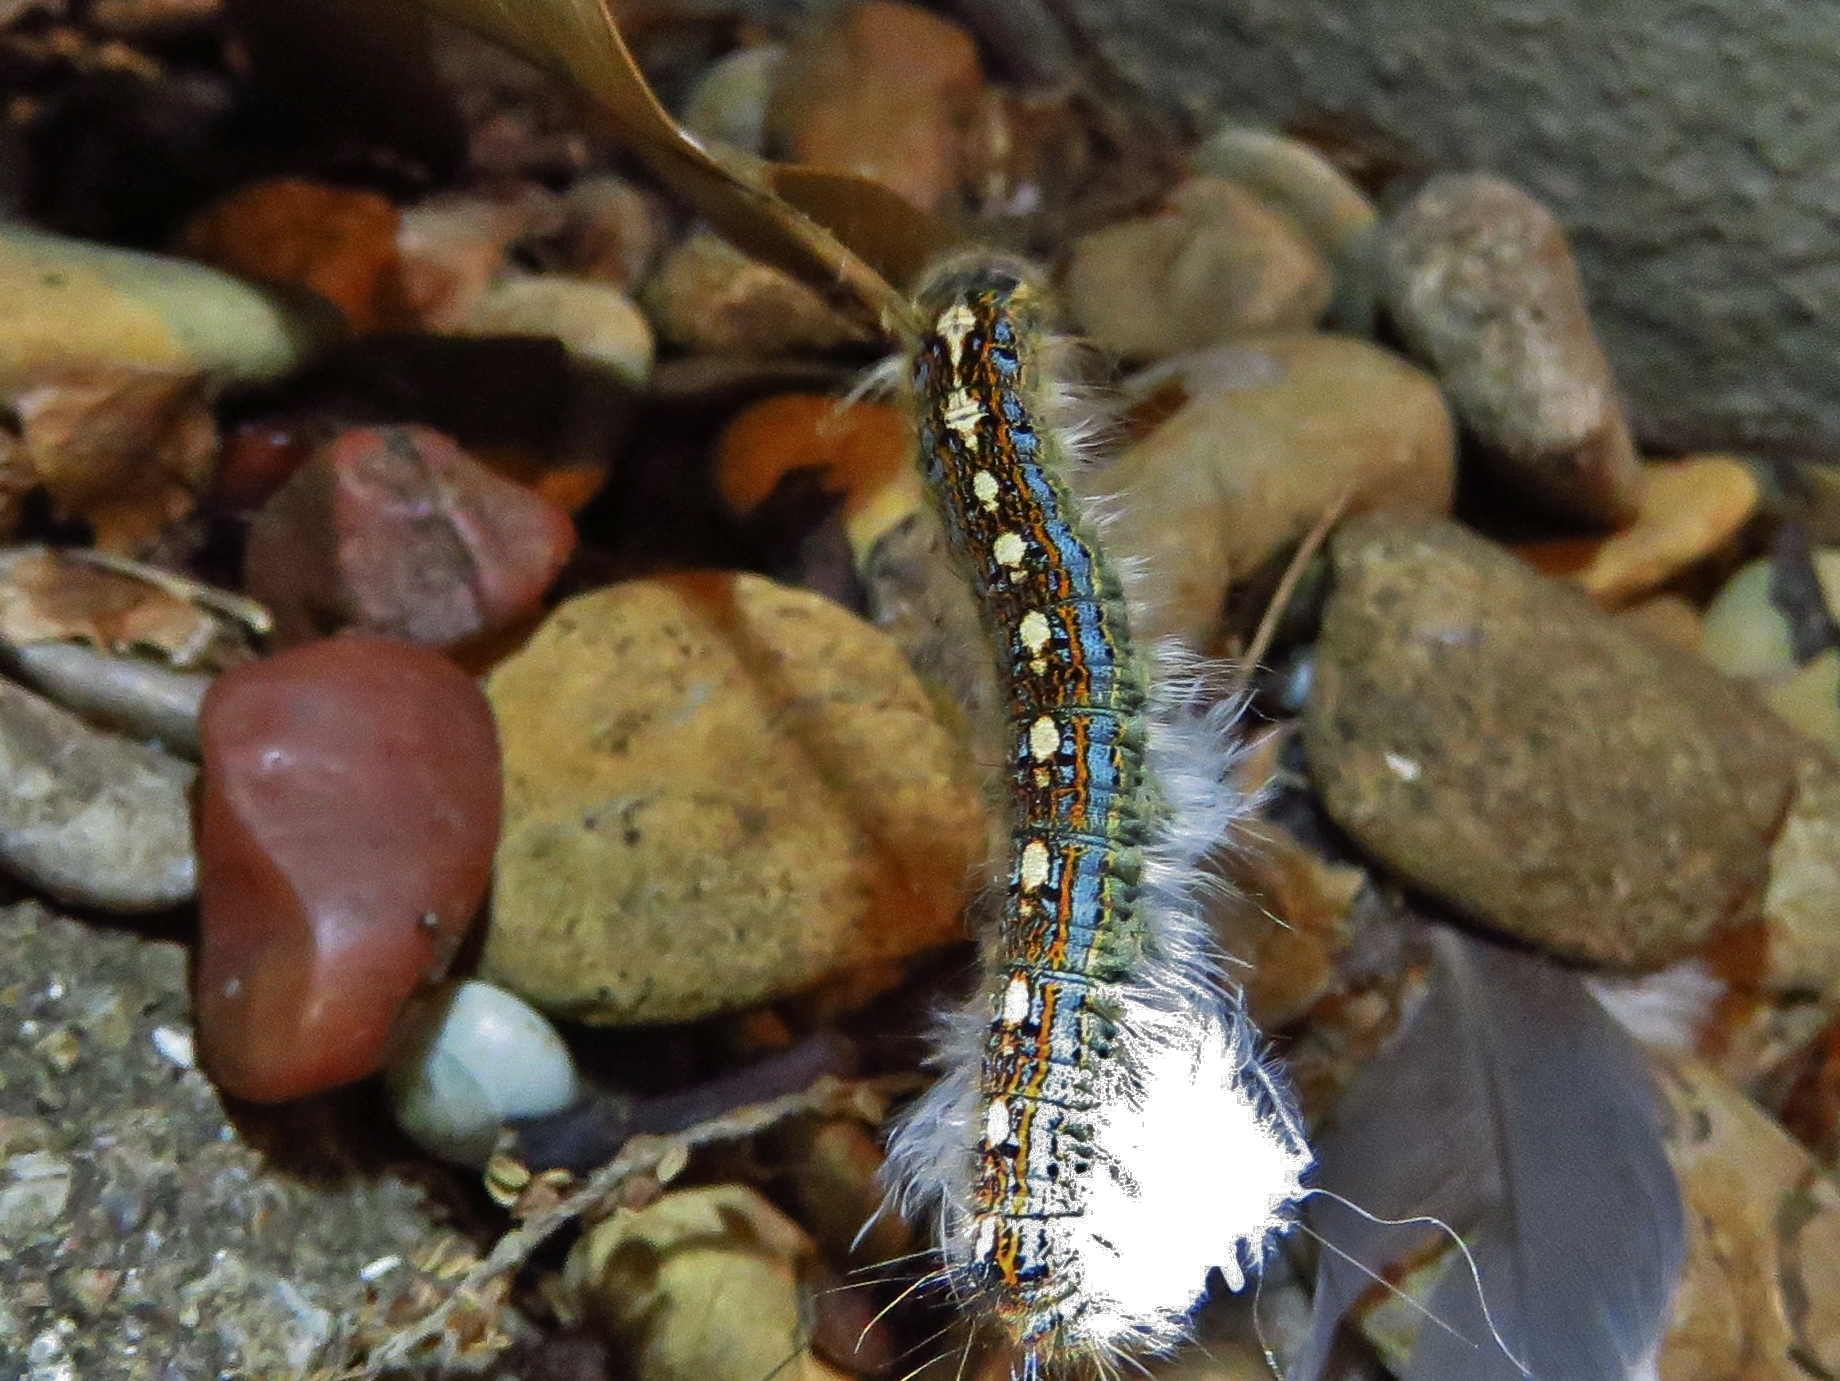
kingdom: Animalia
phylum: Arthropoda
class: Insecta
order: Lepidoptera
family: Lasiocampidae
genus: Malacosoma
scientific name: Malacosoma disstria
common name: Forest tent caterpillar
